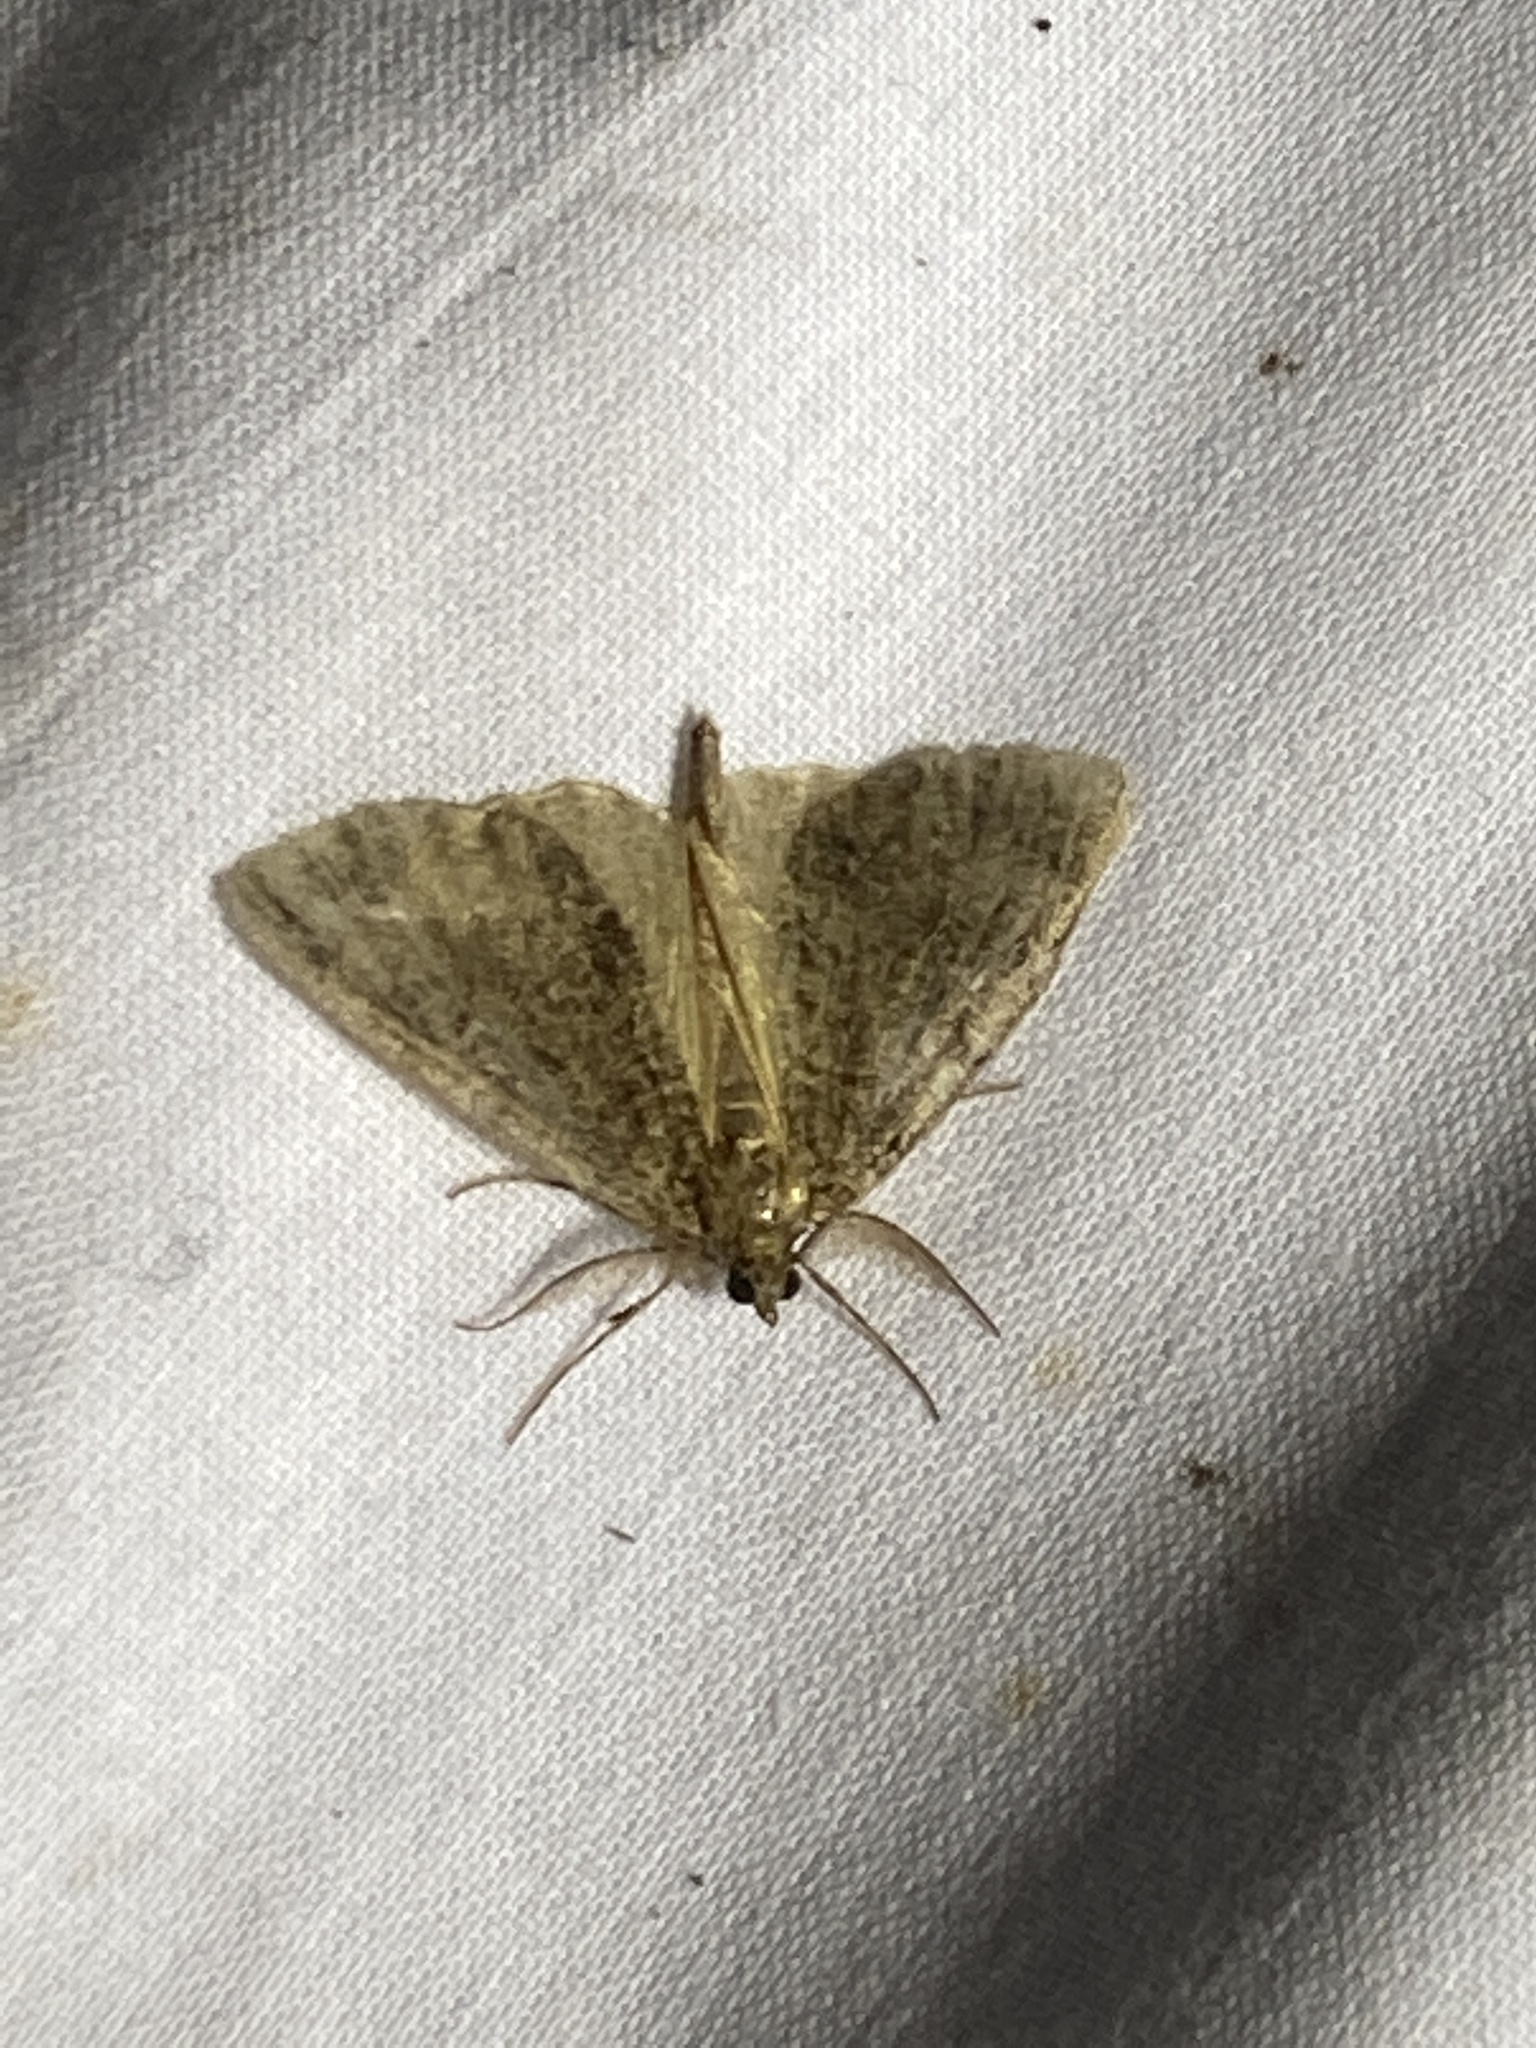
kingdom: Animalia
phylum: Arthropoda
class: Insecta
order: Lepidoptera
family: Geometridae
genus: Pseudocoremia
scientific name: Pseudocoremia suavis
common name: Common forest looper
